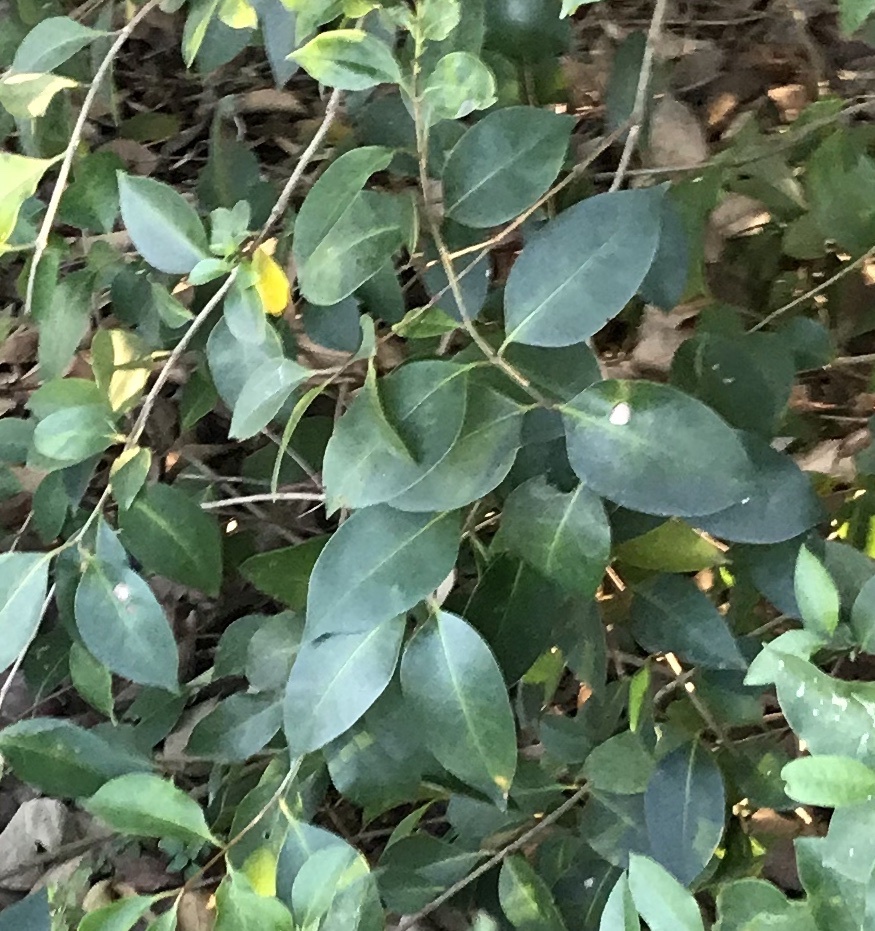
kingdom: Plantae
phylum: Tracheophyta
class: Magnoliopsida
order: Lamiales
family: Oleaceae
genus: Ligustrum
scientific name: Ligustrum lucidum
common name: Glossy privet
